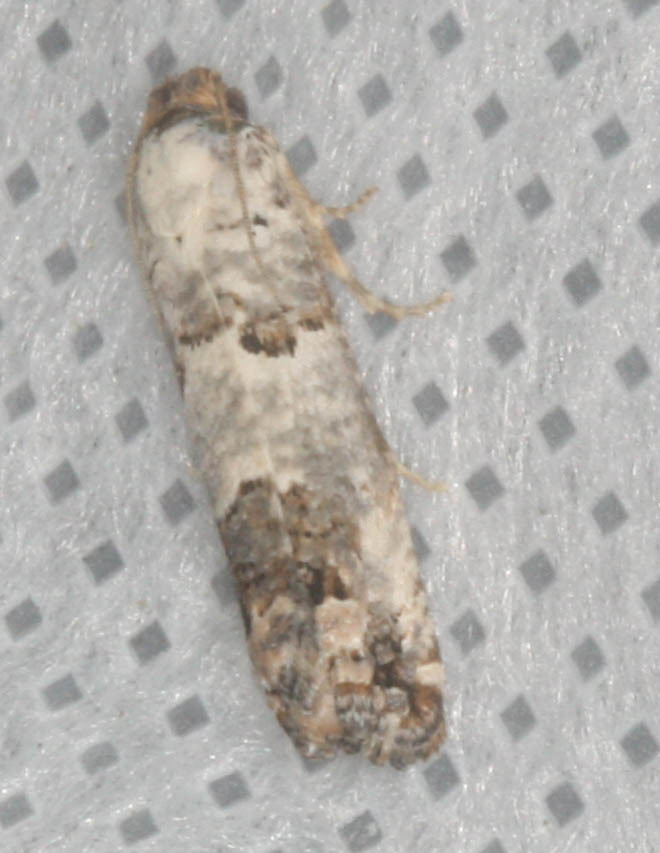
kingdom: Animalia
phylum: Arthropoda
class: Insecta
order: Lepidoptera
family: Tortricidae
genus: Pelochrista
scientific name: Pelochrista eburata
